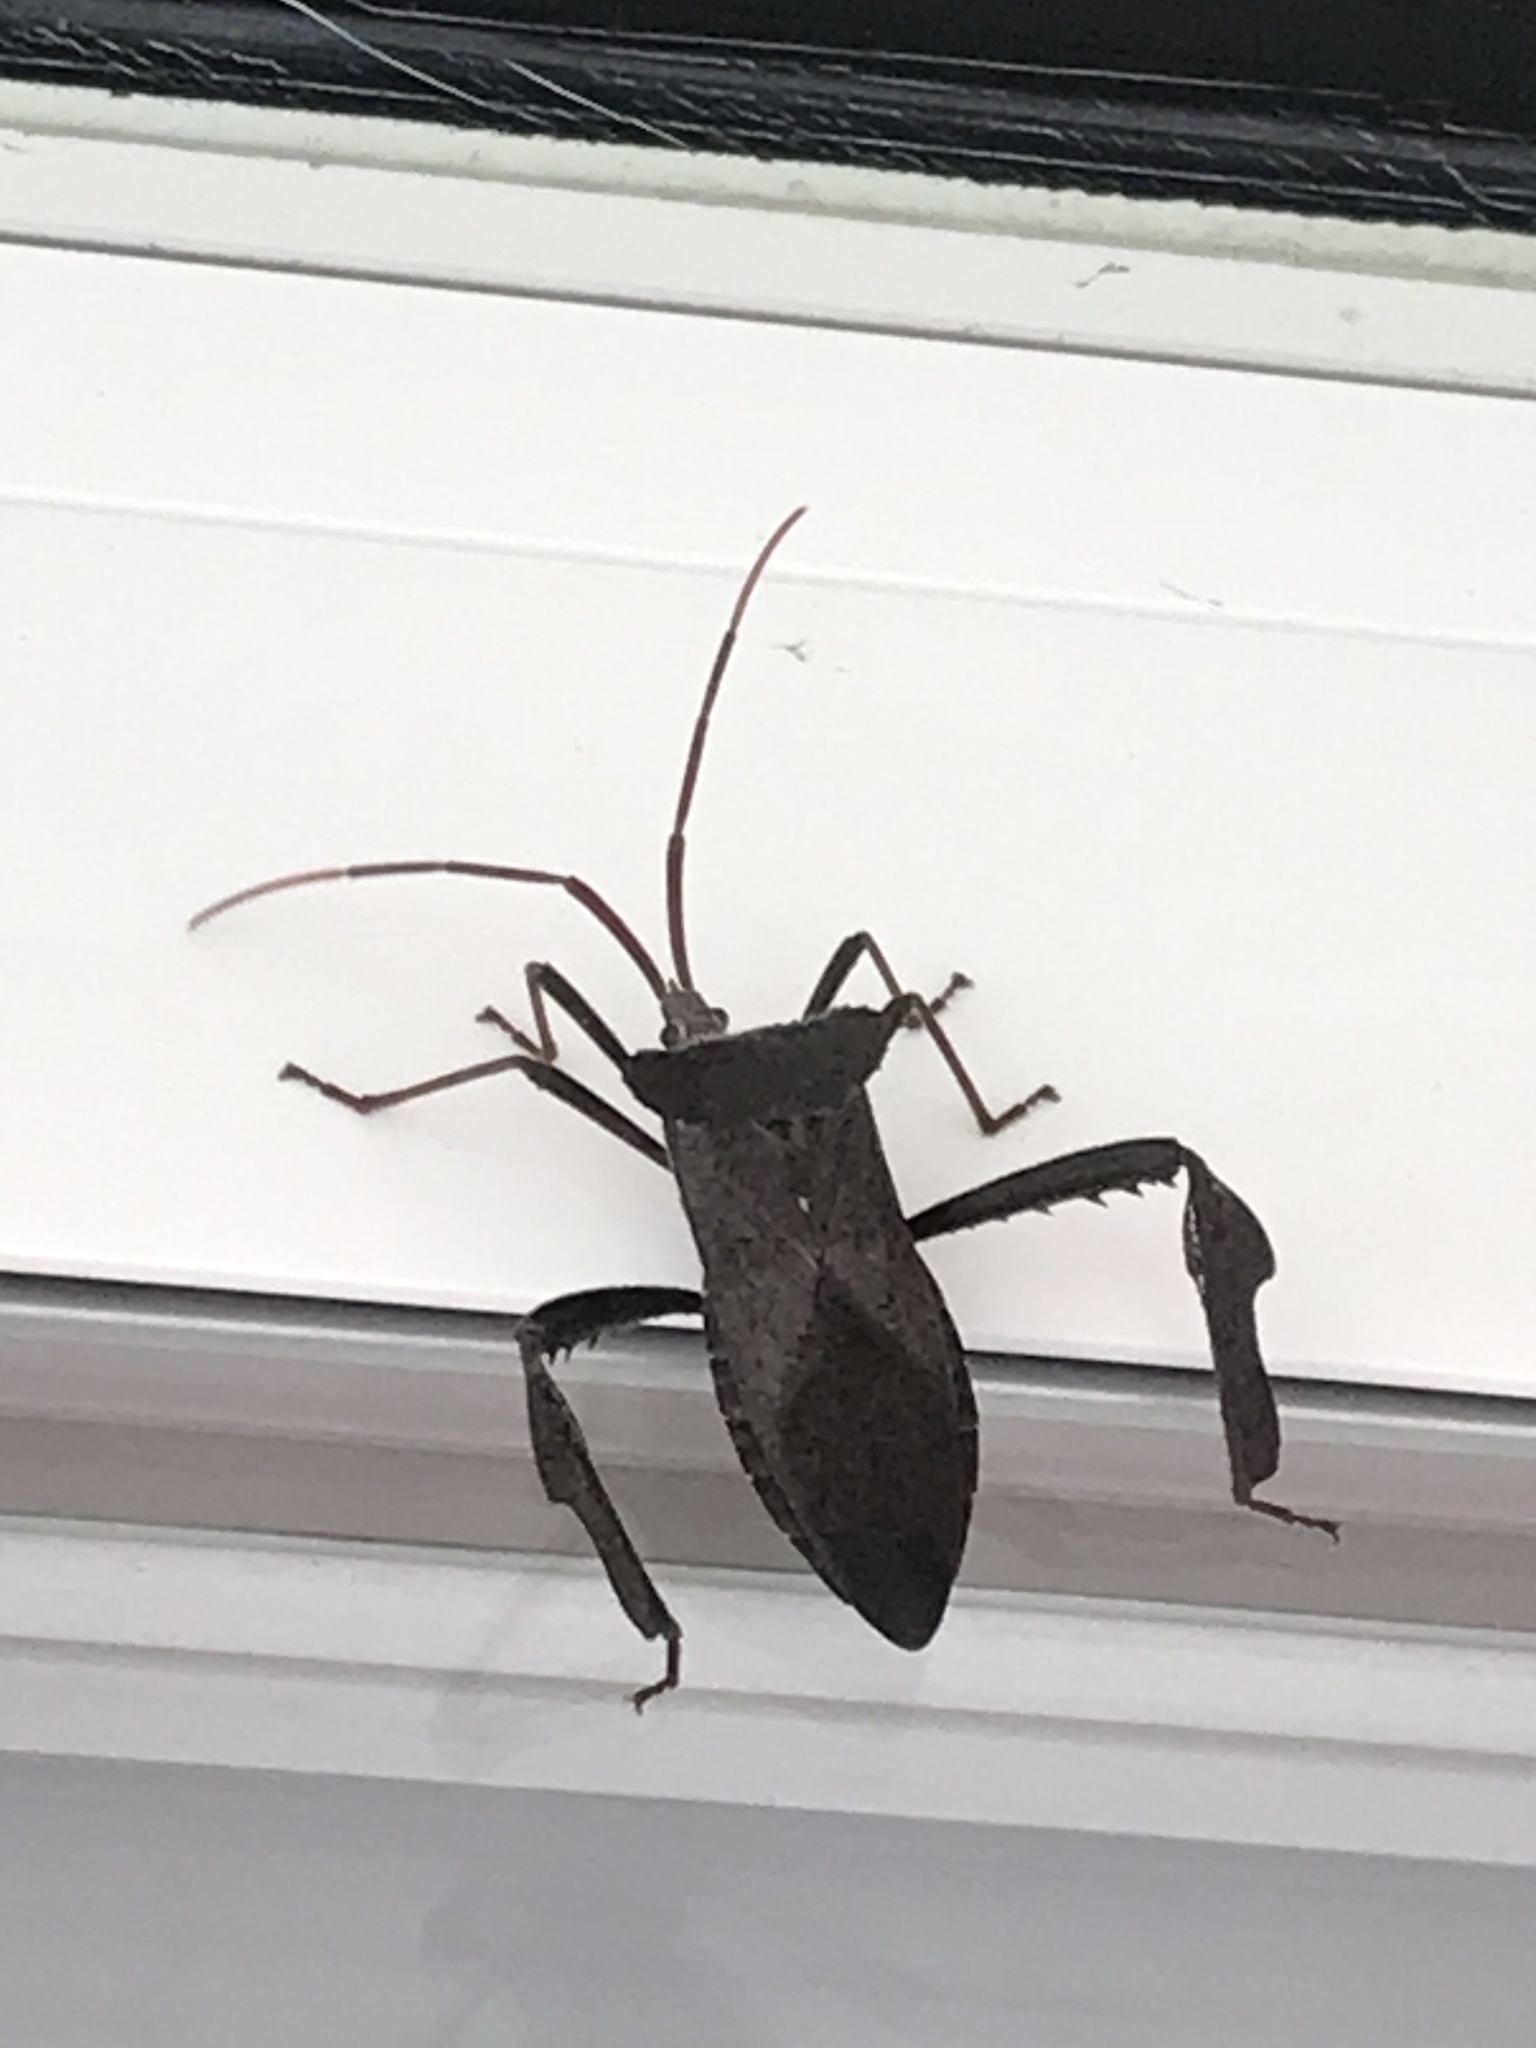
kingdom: Animalia
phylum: Arthropoda
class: Insecta
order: Hemiptera
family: Coreidae
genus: Acanthocephala
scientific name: Acanthocephala declivis
